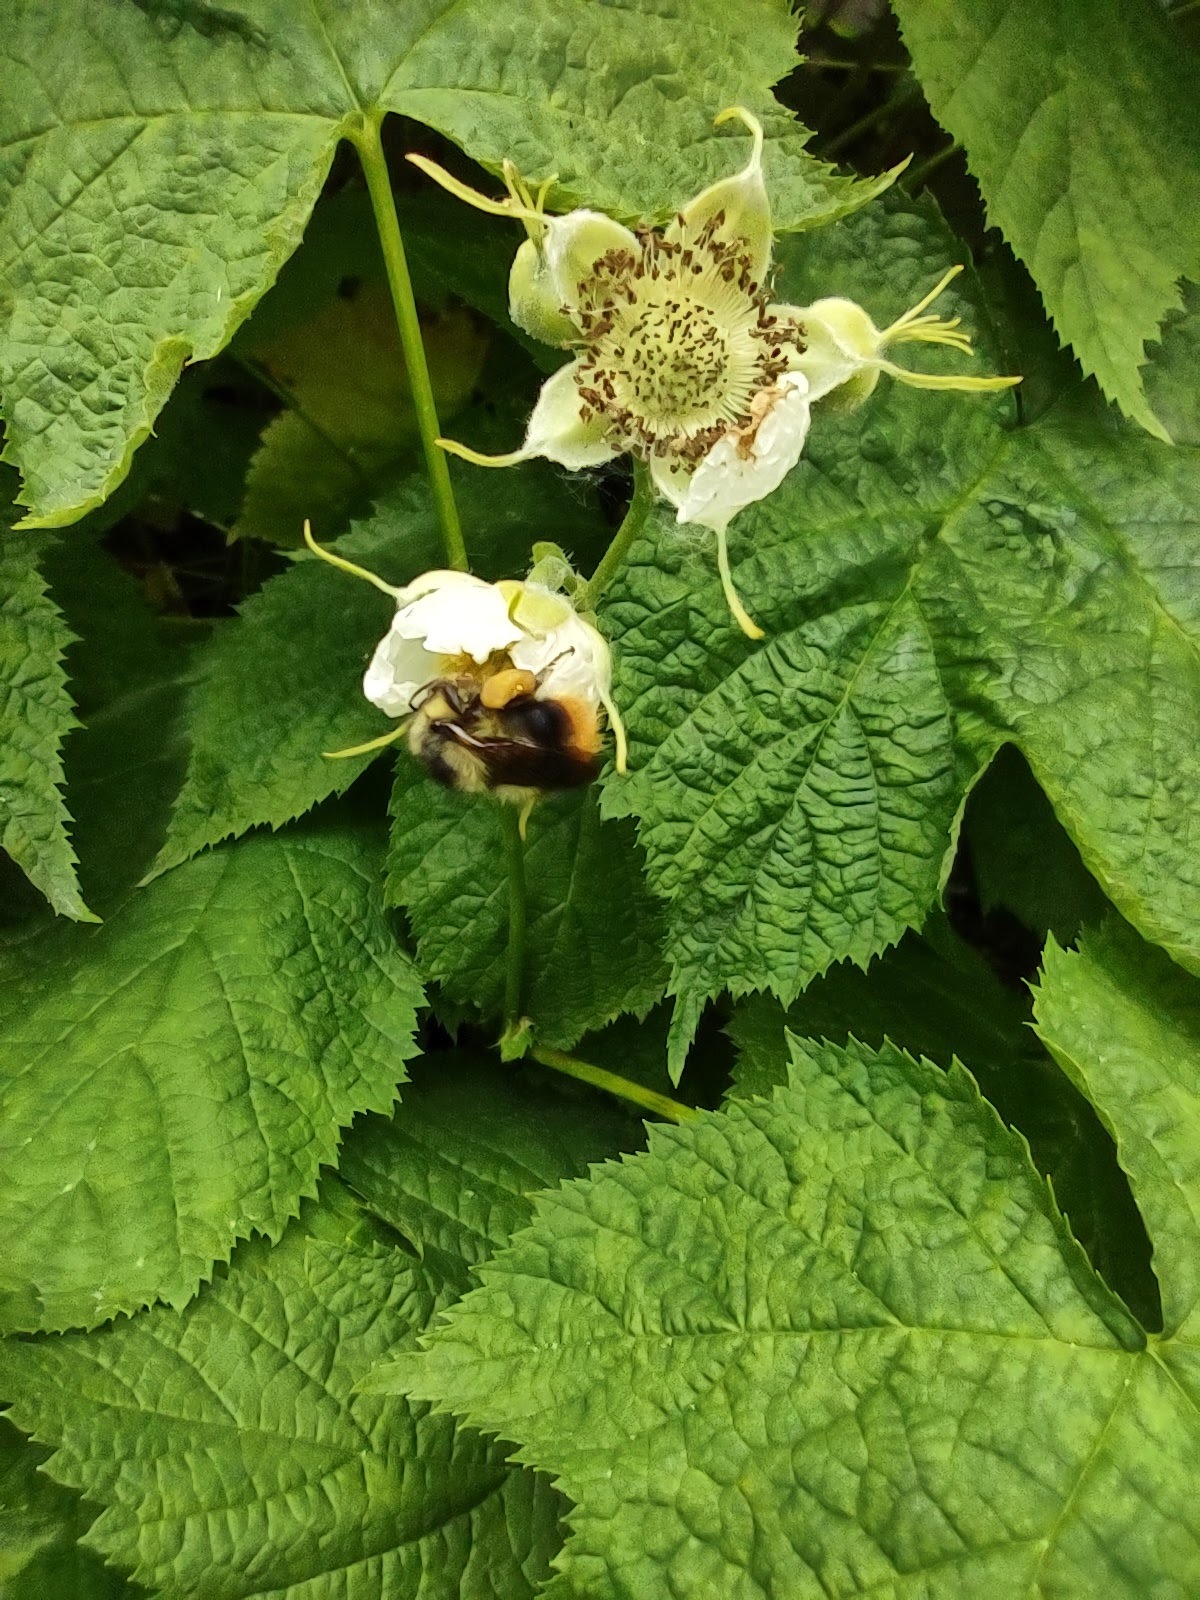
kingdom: Animalia
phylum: Arthropoda
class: Insecta
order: Hymenoptera
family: Apidae
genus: Bombus
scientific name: Bombus mixtus
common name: Fuzzy-horned bumble bee
